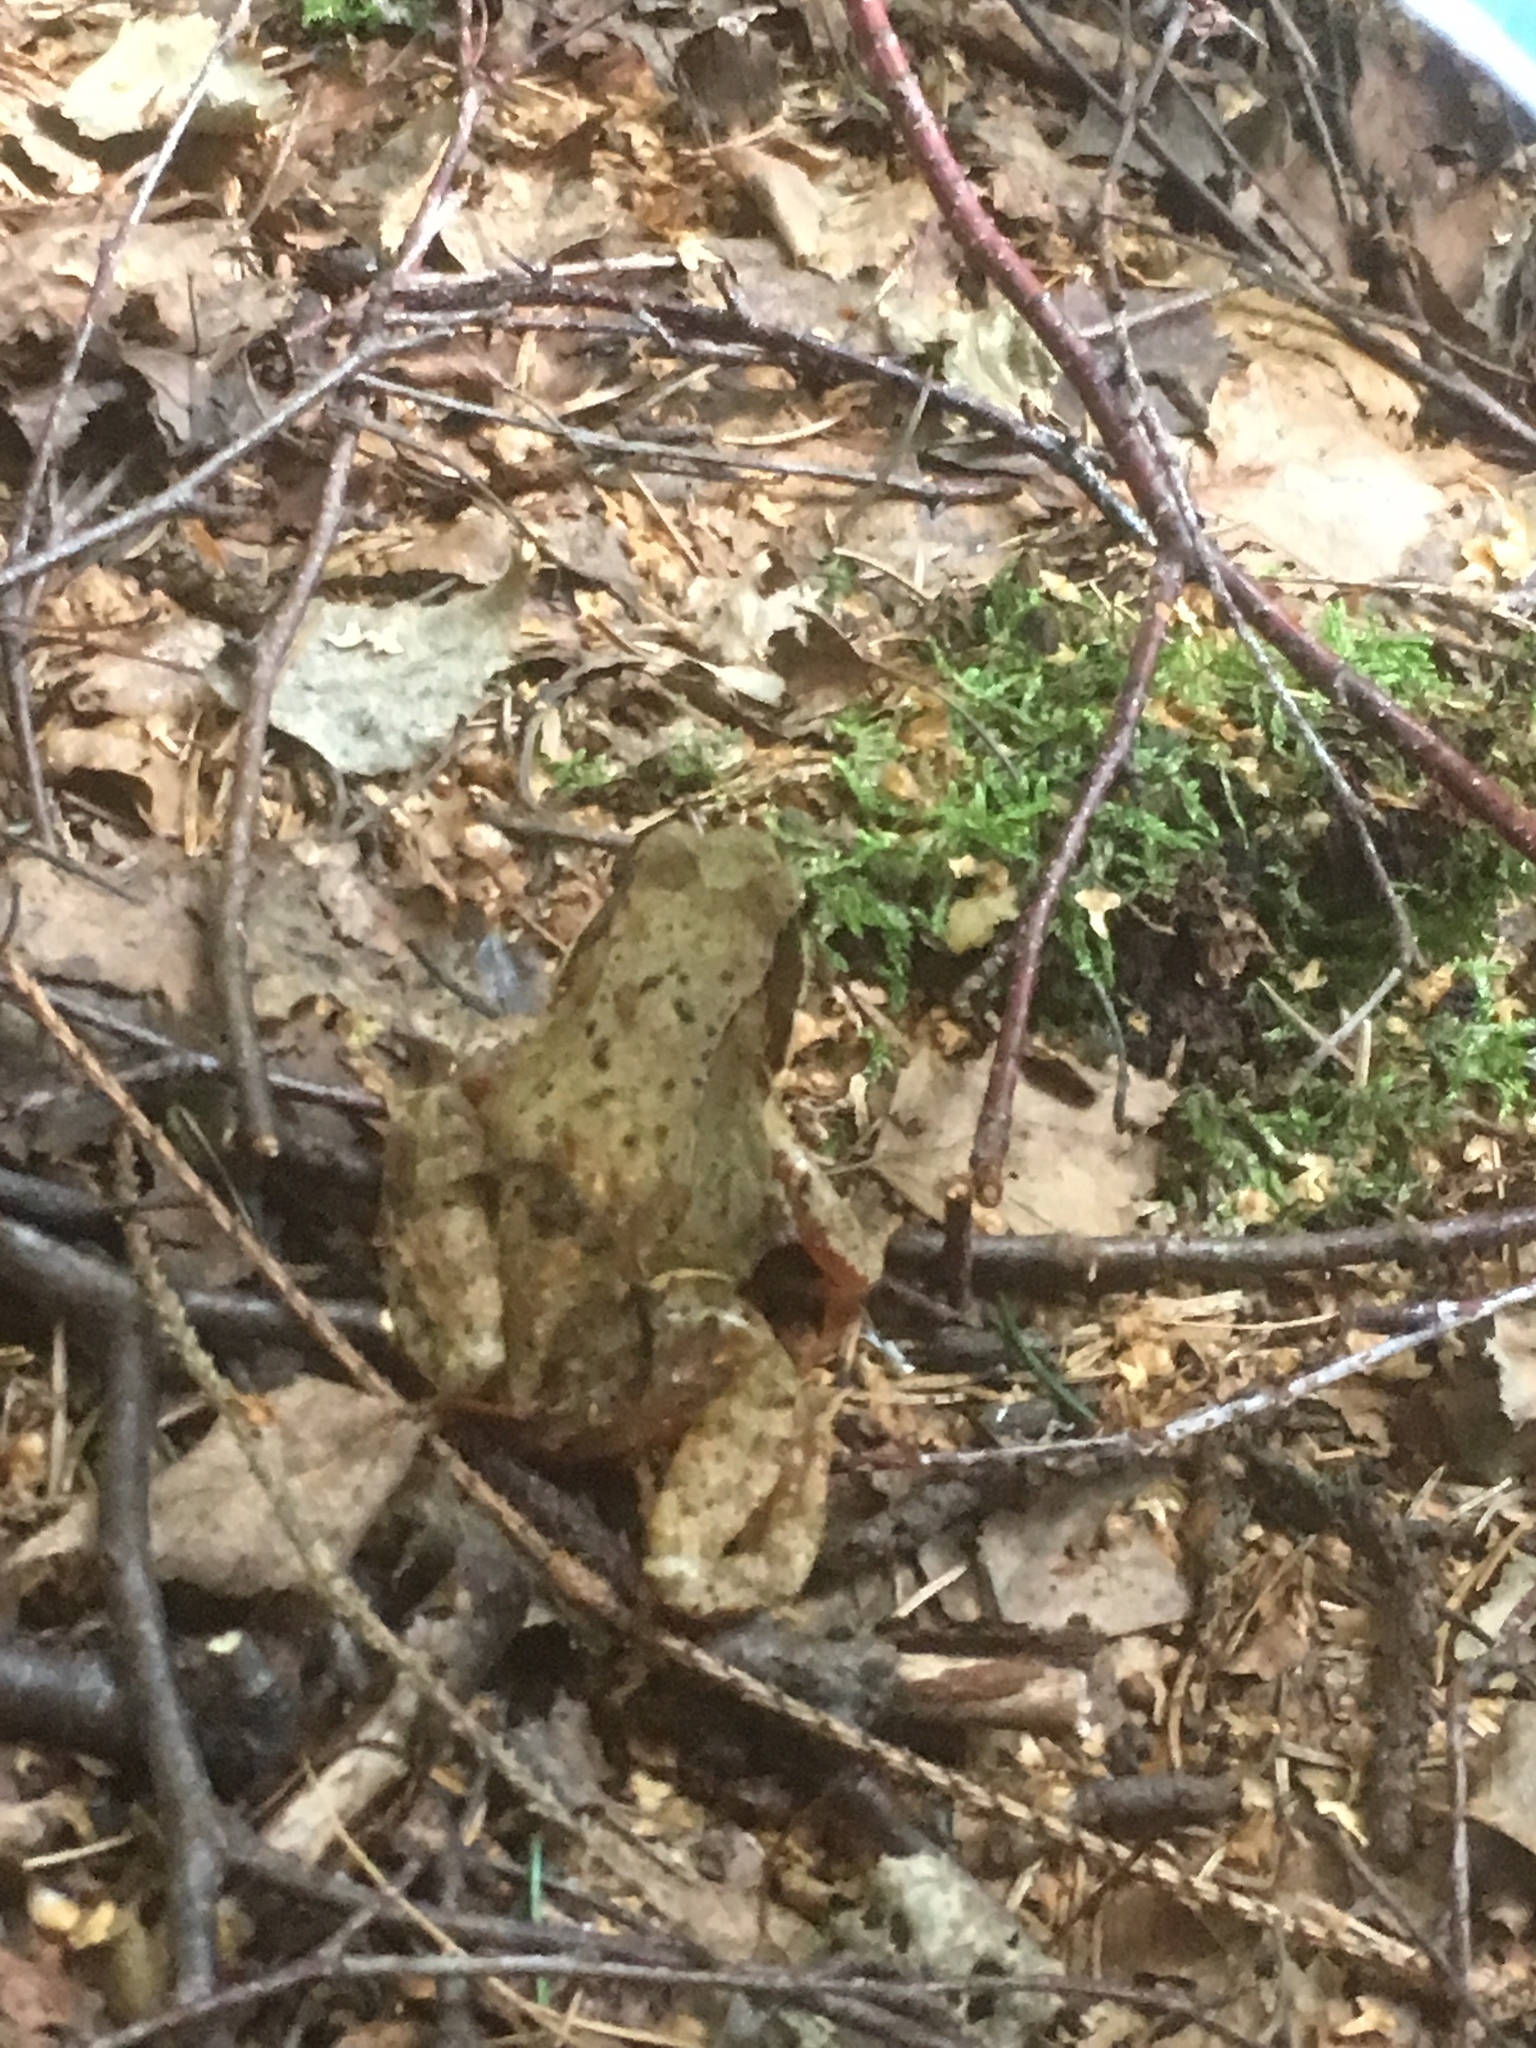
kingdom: Animalia
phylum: Chordata
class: Amphibia
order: Anura
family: Ranidae
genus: Rana
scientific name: Rana temporaria
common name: Common frog
